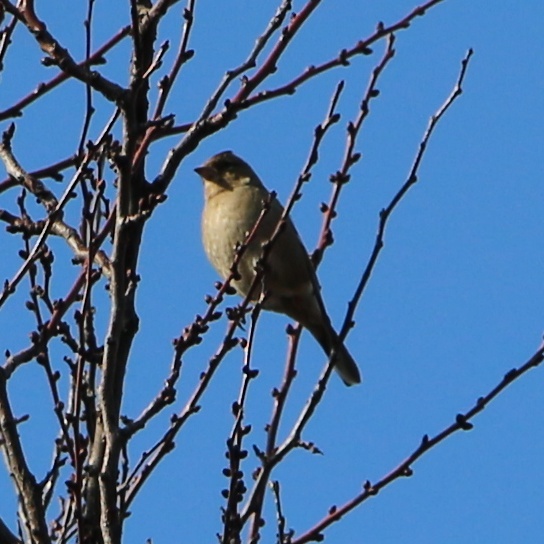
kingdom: Animalia
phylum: Chordata
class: Aves
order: Passeriformes
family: Fringillidae
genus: Fringilla
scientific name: Fringilla coelebs
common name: Common chaffinch
